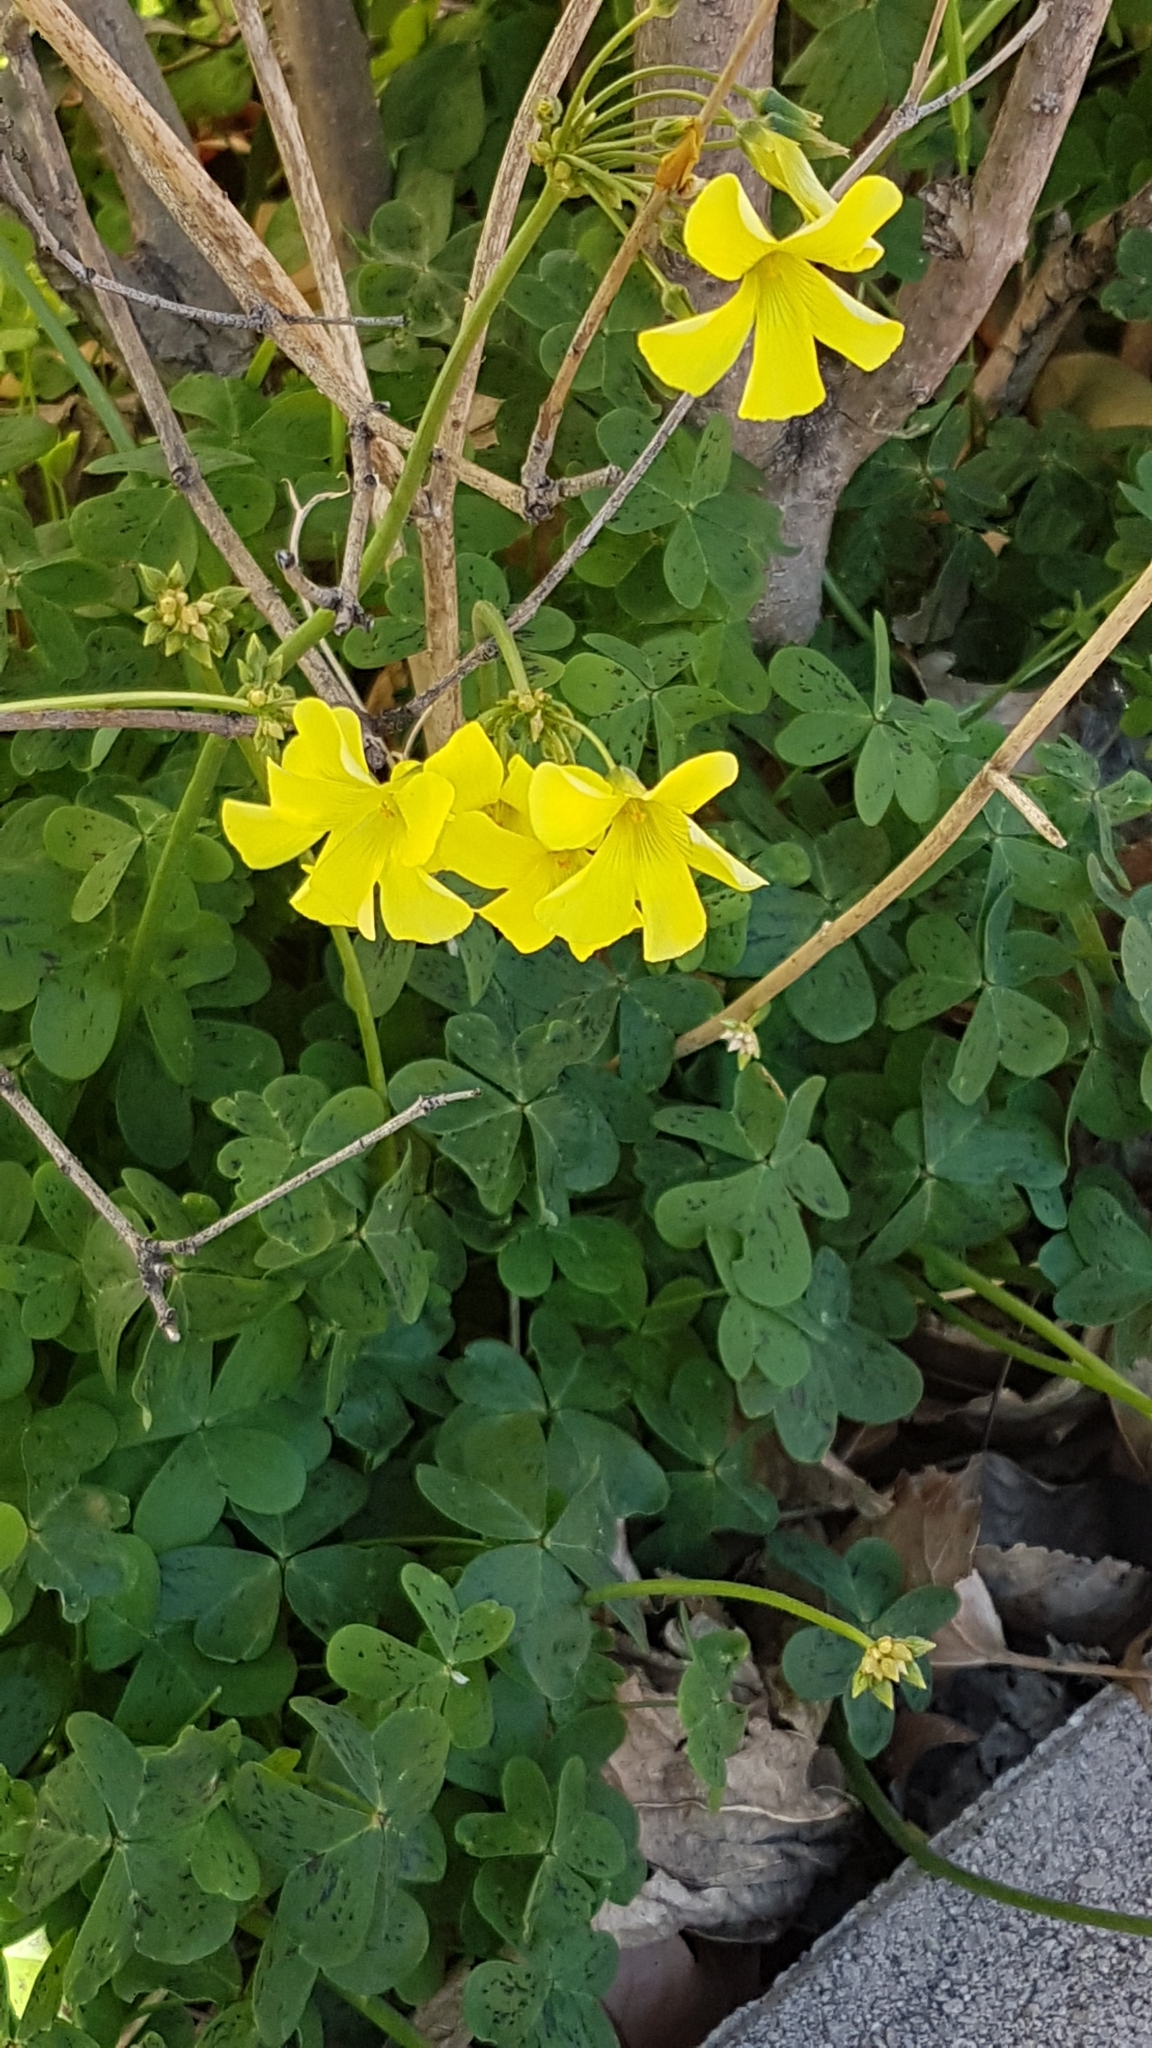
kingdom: Plantae
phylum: Tracheophyta
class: Magnoliopsida
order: Oxalidales
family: Oxalidaceae
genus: Oxalis
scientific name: Oxalis pes-caprae
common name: Bermuda-buttercup
